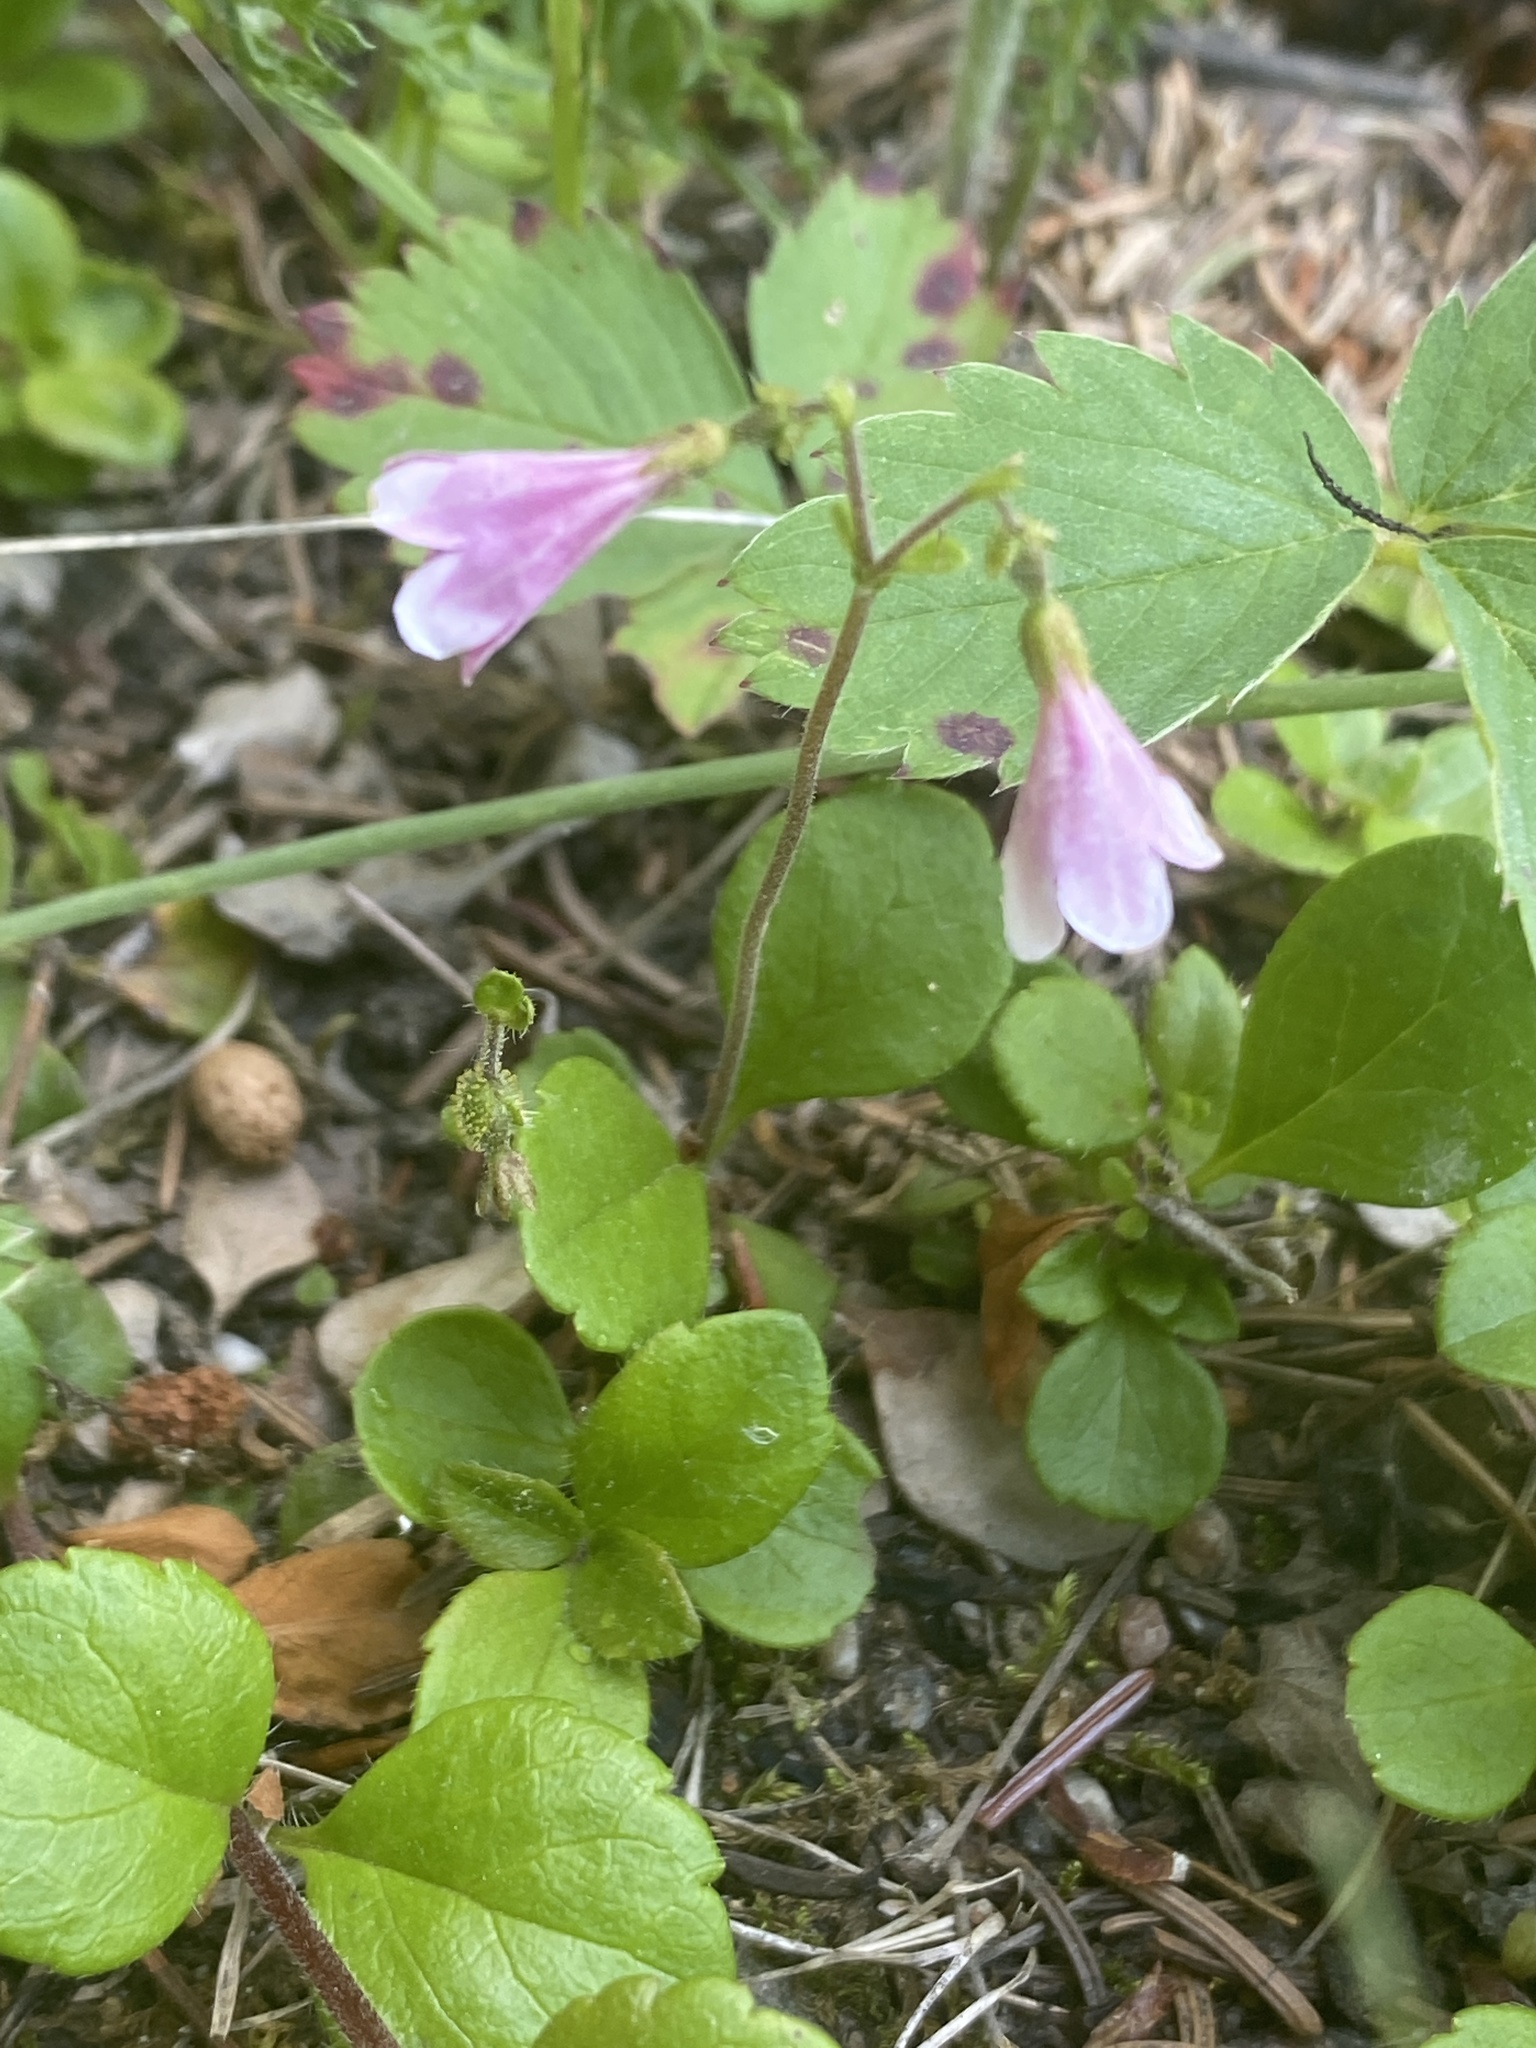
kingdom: Plantae
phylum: Tracheophyta
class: Magnoliopsida
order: Dipsacales
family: Caprifoliaceae
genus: Linnaea
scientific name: Linnaea borealis
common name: Twinflower
